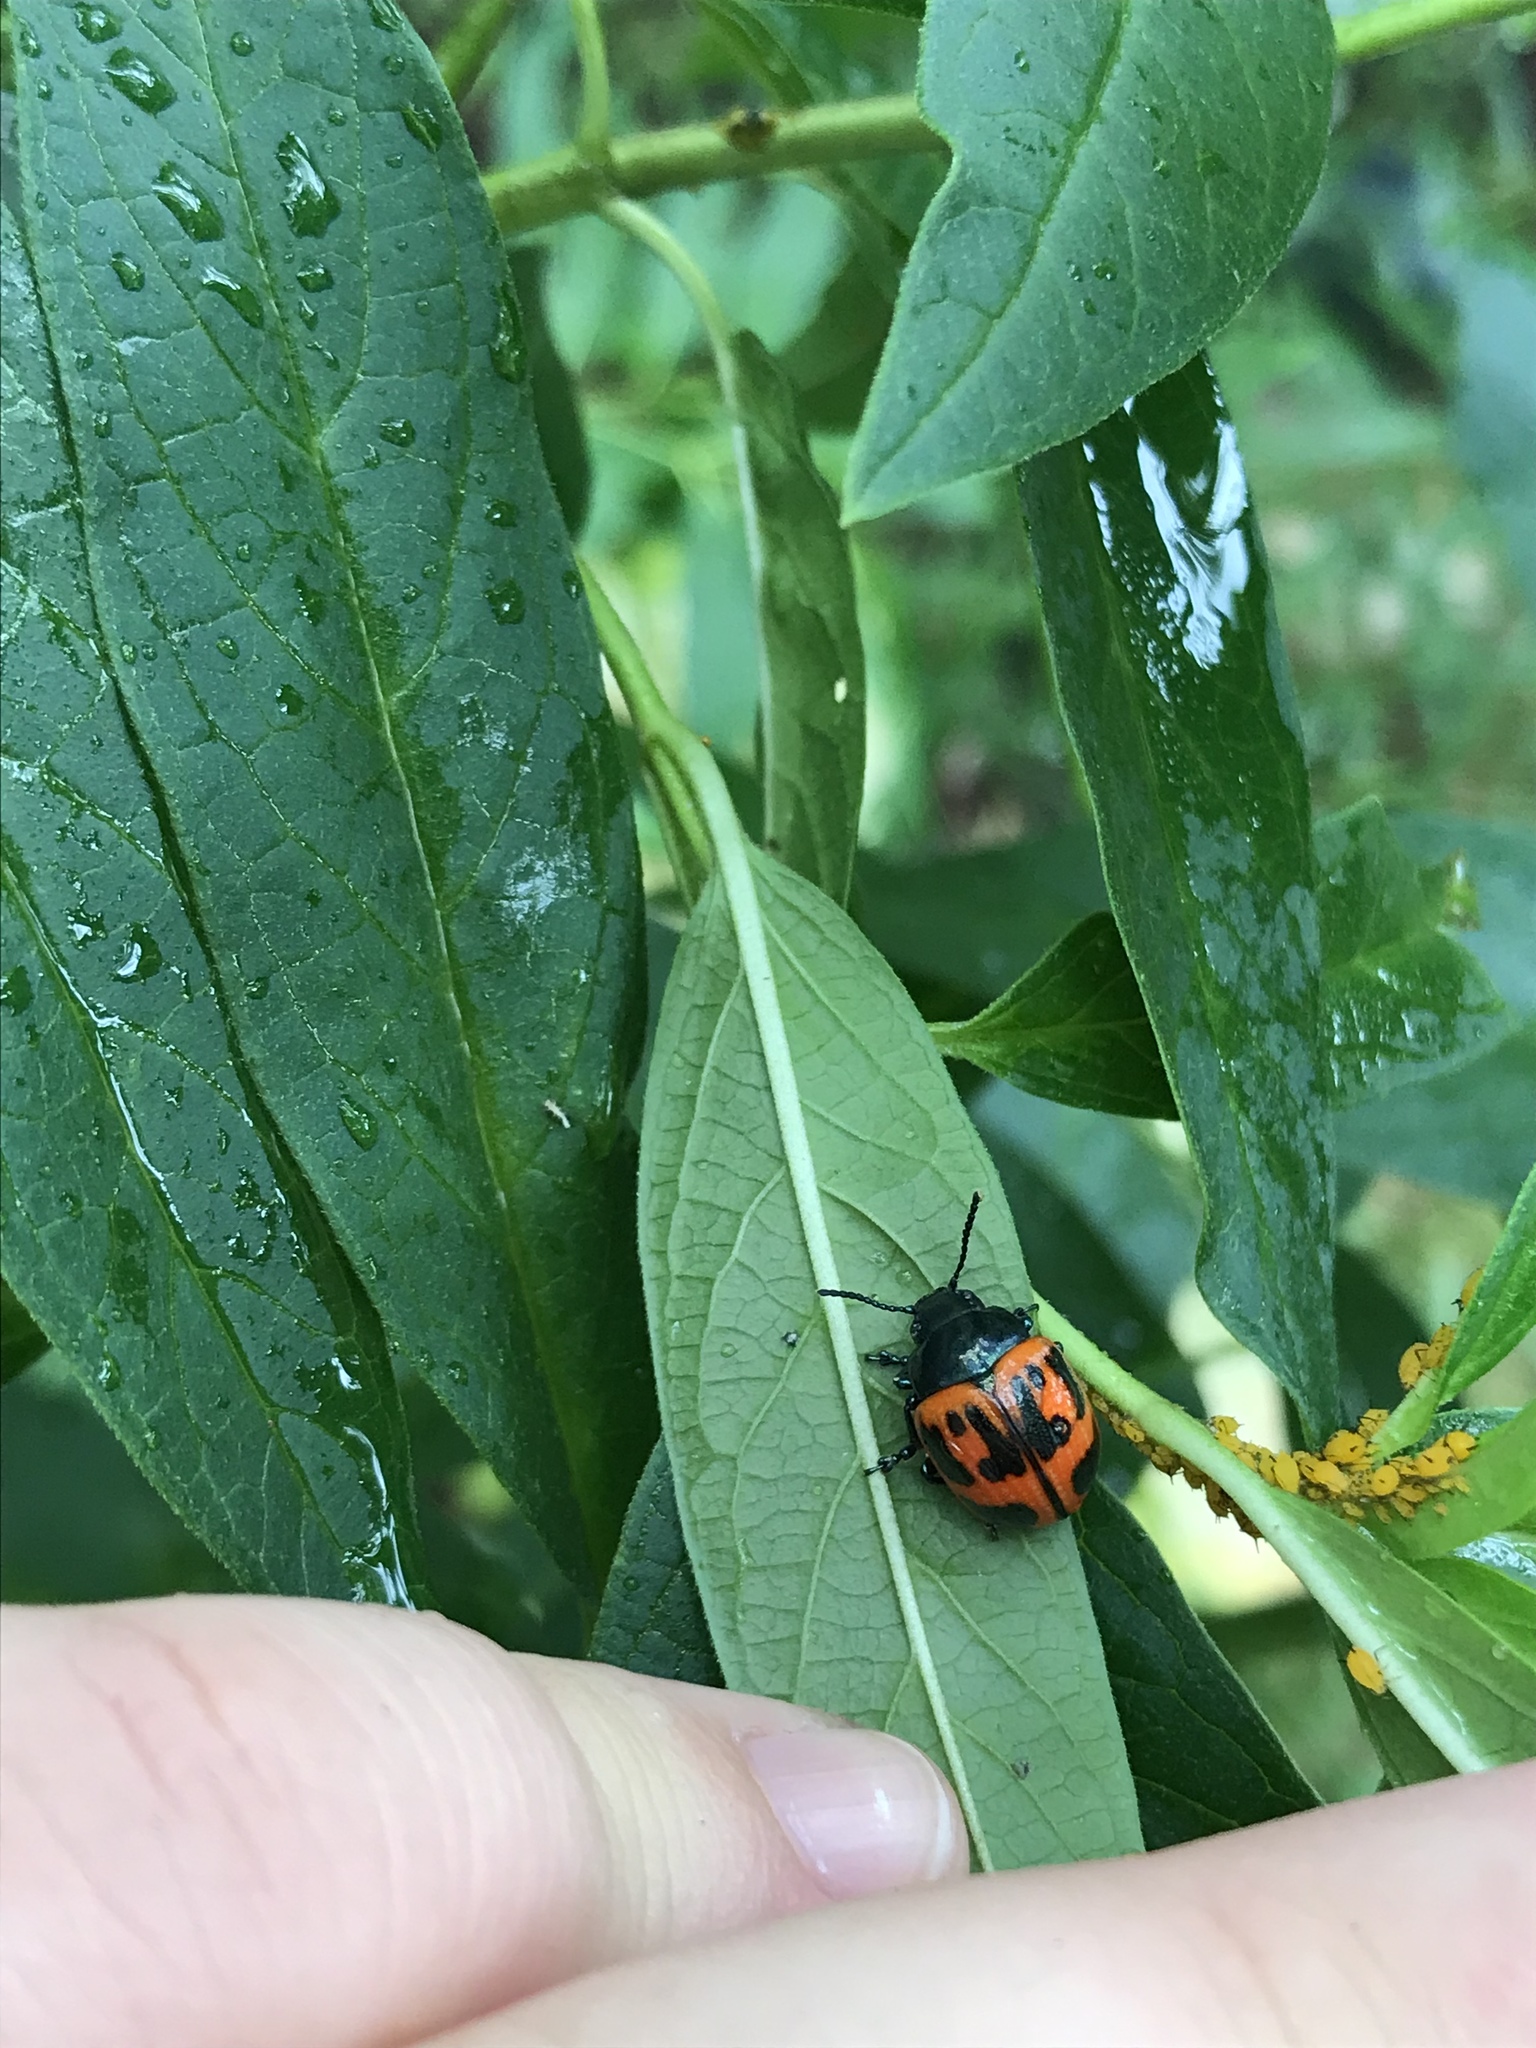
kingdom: Animalia
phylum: Arthropoda
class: Insecta
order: Coleoptera
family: Chrysomelidae
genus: Labidomera
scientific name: Labidomera clivicollis
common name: Swamp milkweed leaf beetle
